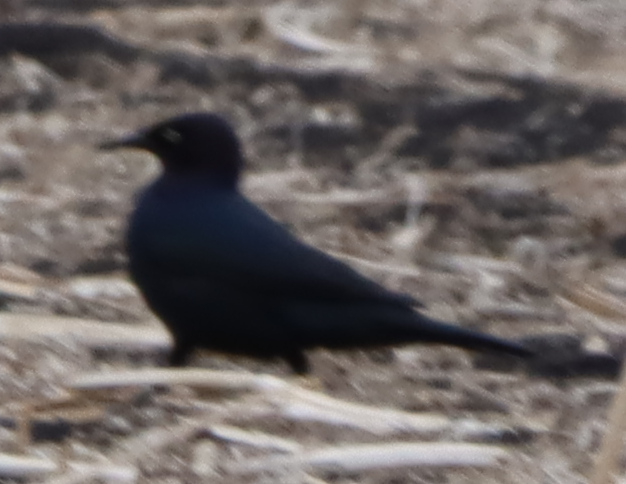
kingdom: Animalia
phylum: Chordata
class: Aves
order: Passeriformes
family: Icteridae
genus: Euphagus
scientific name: Euphagus carolinus
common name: Rusty blackbird
